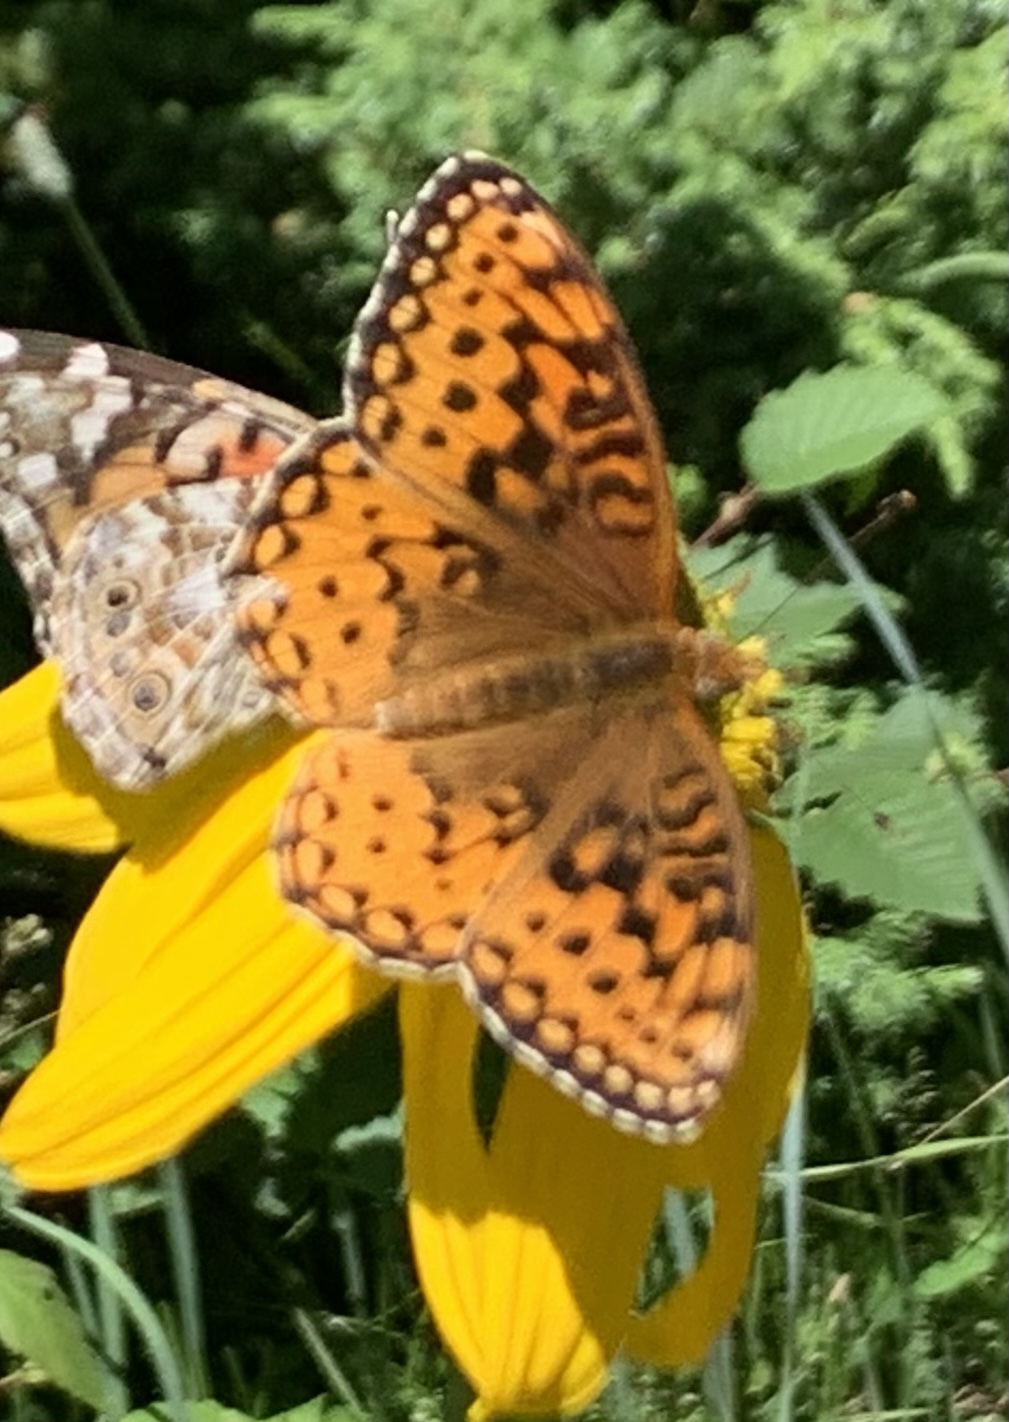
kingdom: Animalia
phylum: Arthropoda
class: Insecta
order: Lepidoptera
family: Nymphalidae
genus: Speyeria
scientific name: Speyeria aphrodite
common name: Aphrodite friitllary
